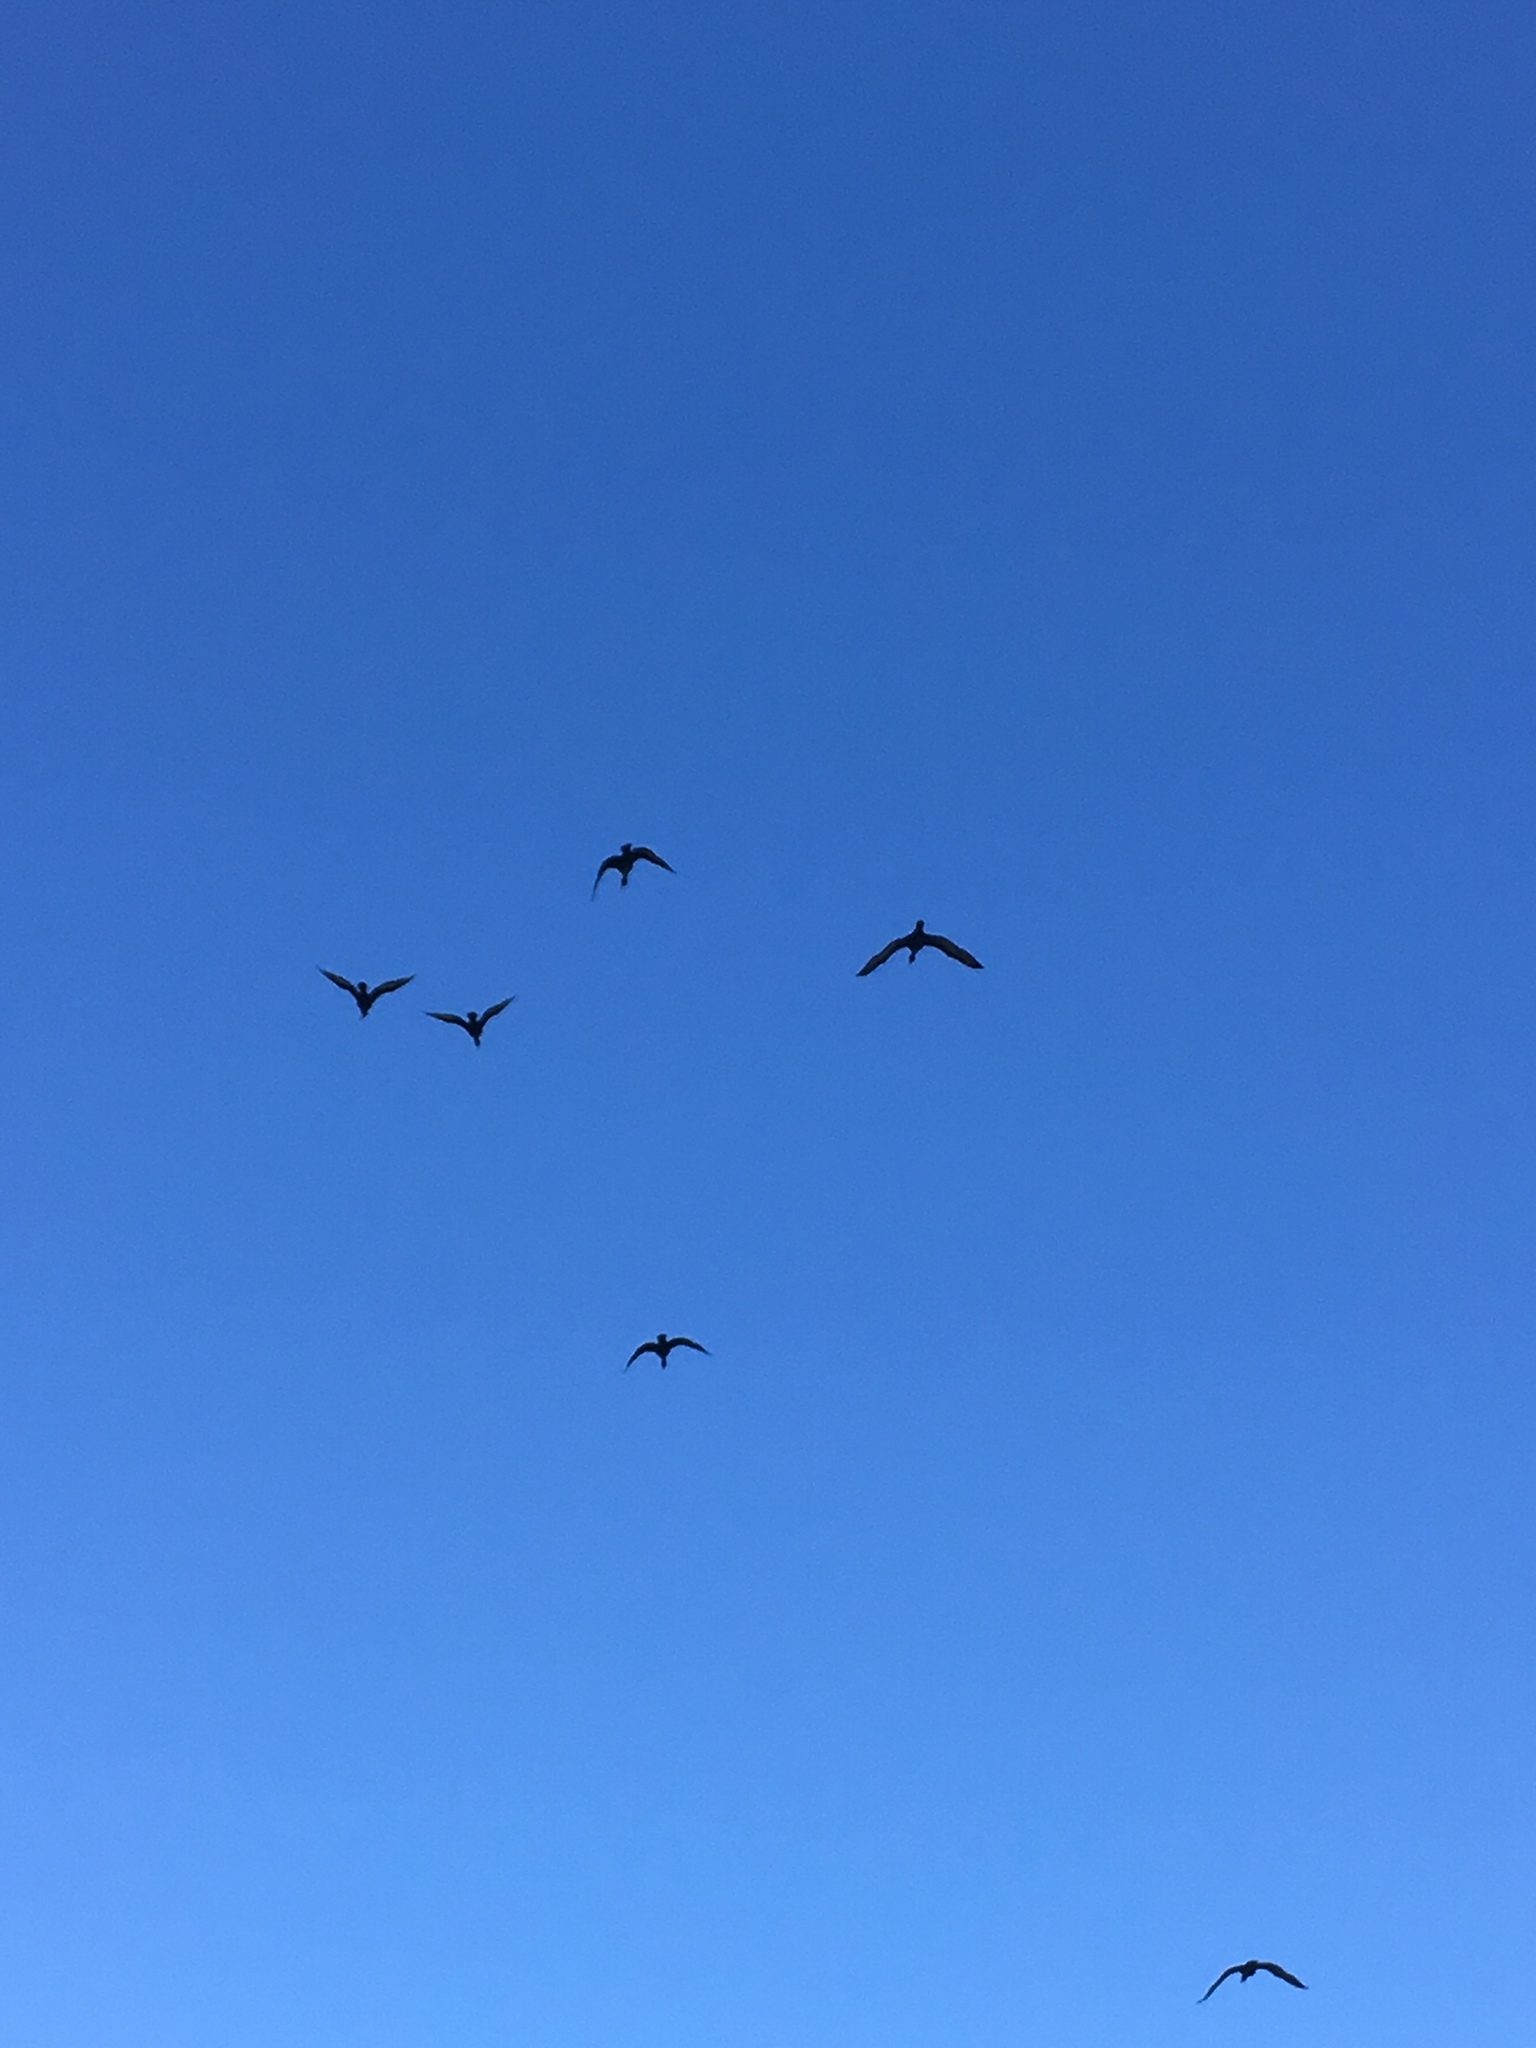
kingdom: Animalia
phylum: Chordata
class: Aves
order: Suliformes
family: Phalacrocoracidae
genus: Phalacrocorax
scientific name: Phalacrocorax auritus
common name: Double-crested cormorant
